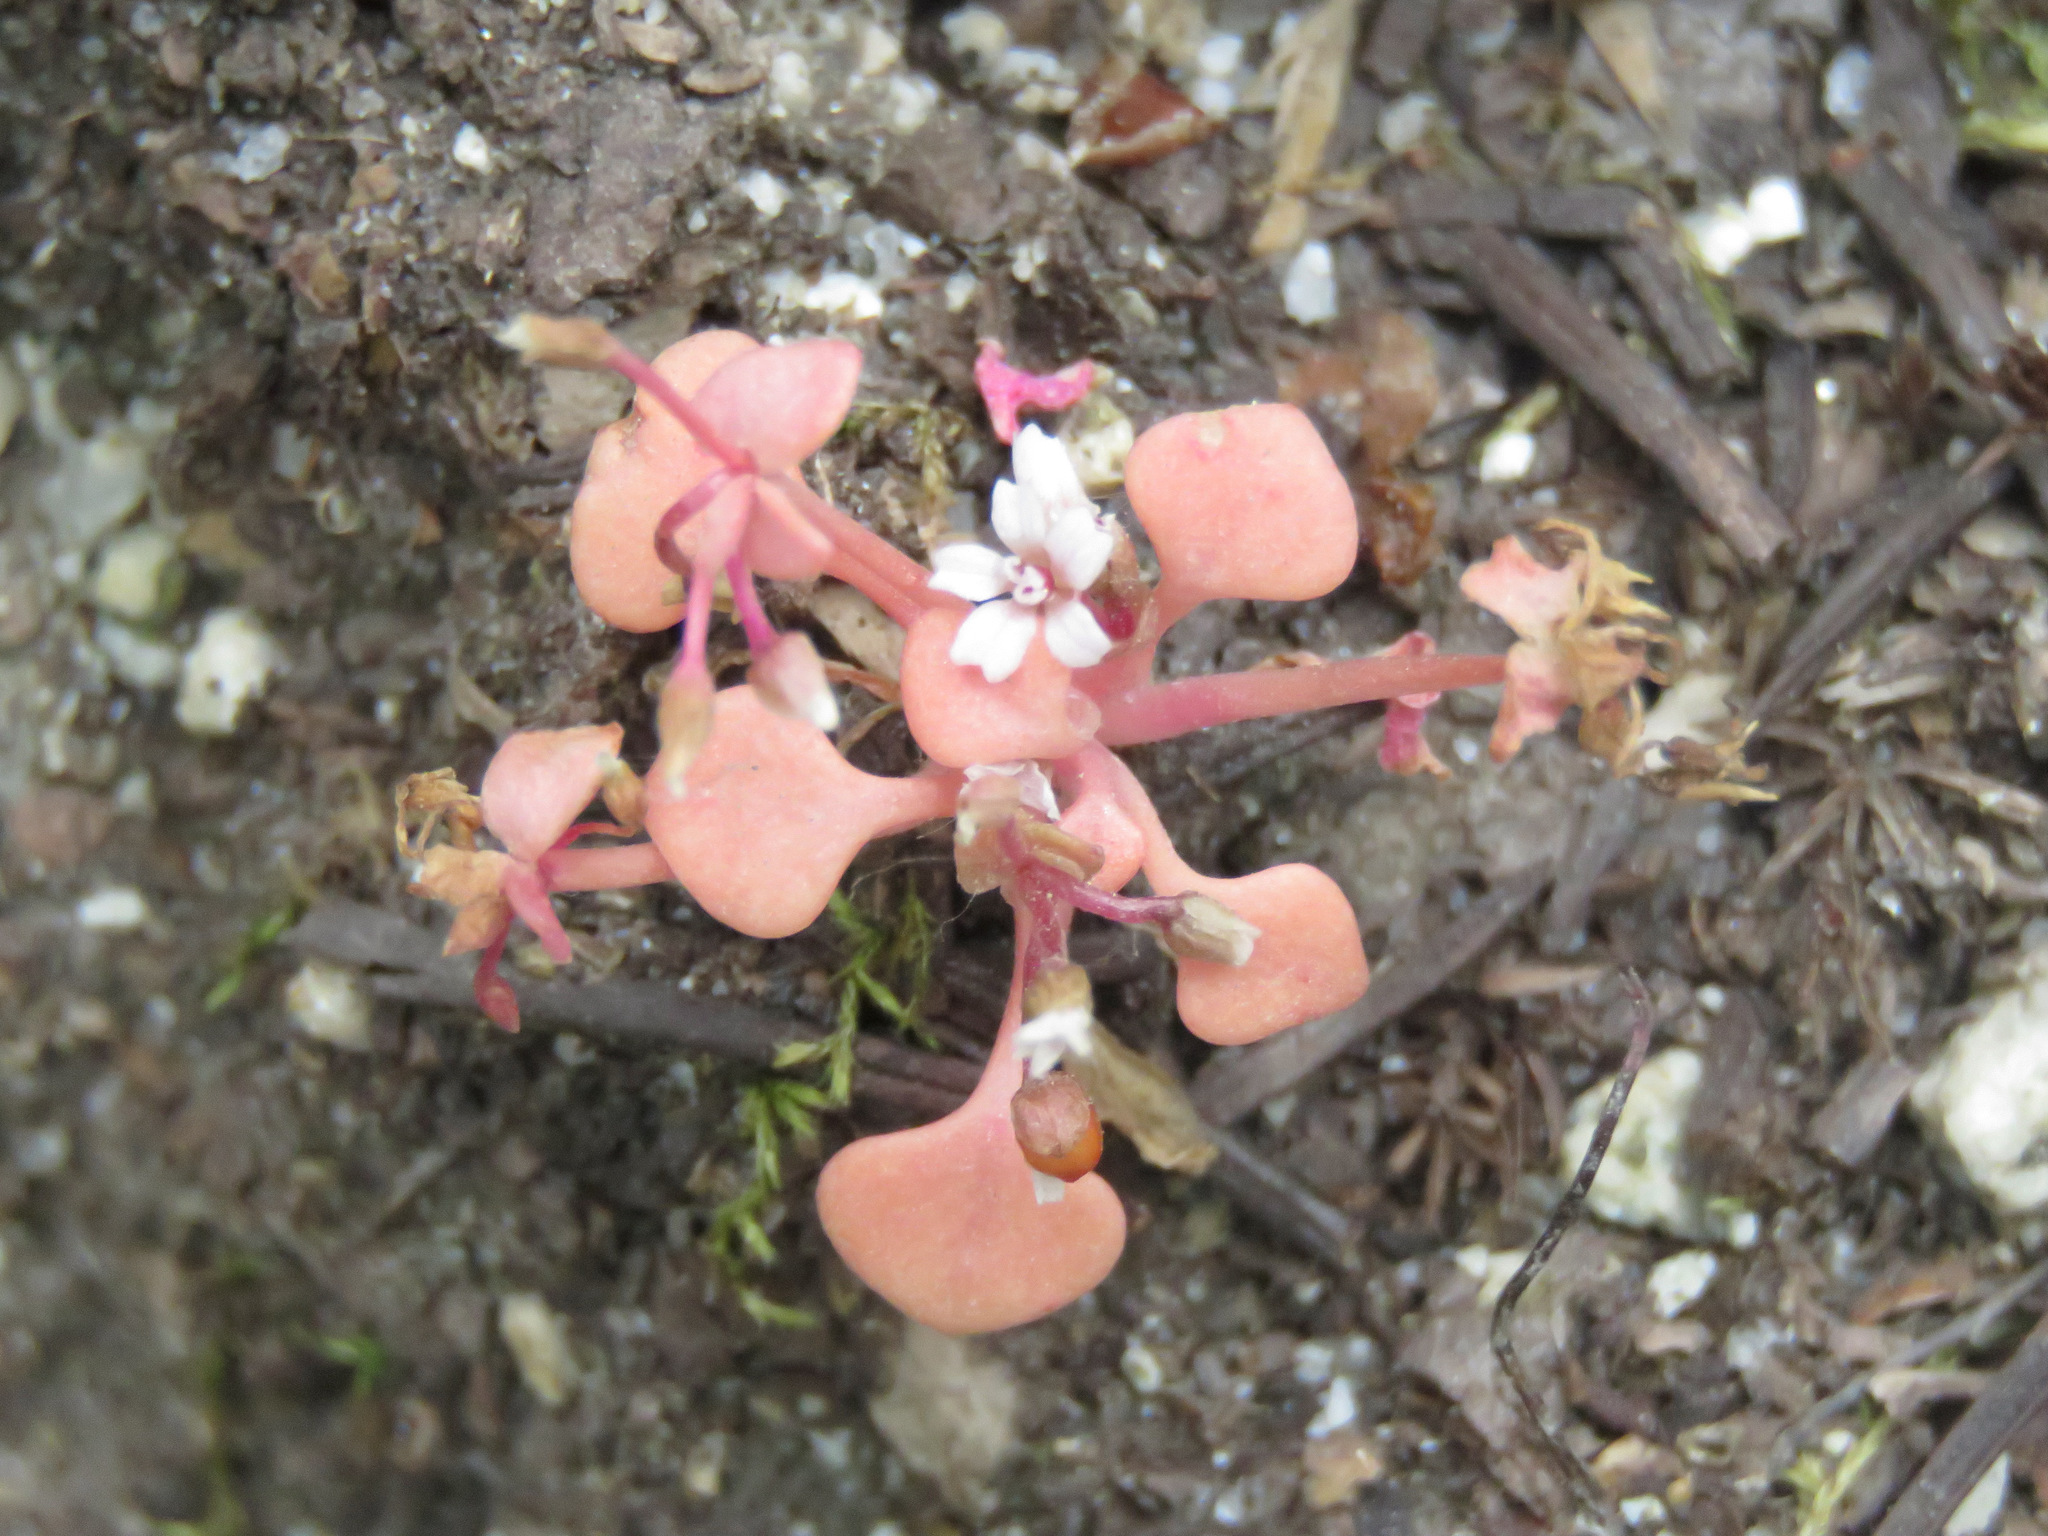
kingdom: Plantae
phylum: Tracheophyta
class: Magnoliopsida
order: Caryophyllales
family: Montiaceae
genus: Claytonia
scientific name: Claytonia rubra
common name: Erubescent miner's-lettuce
